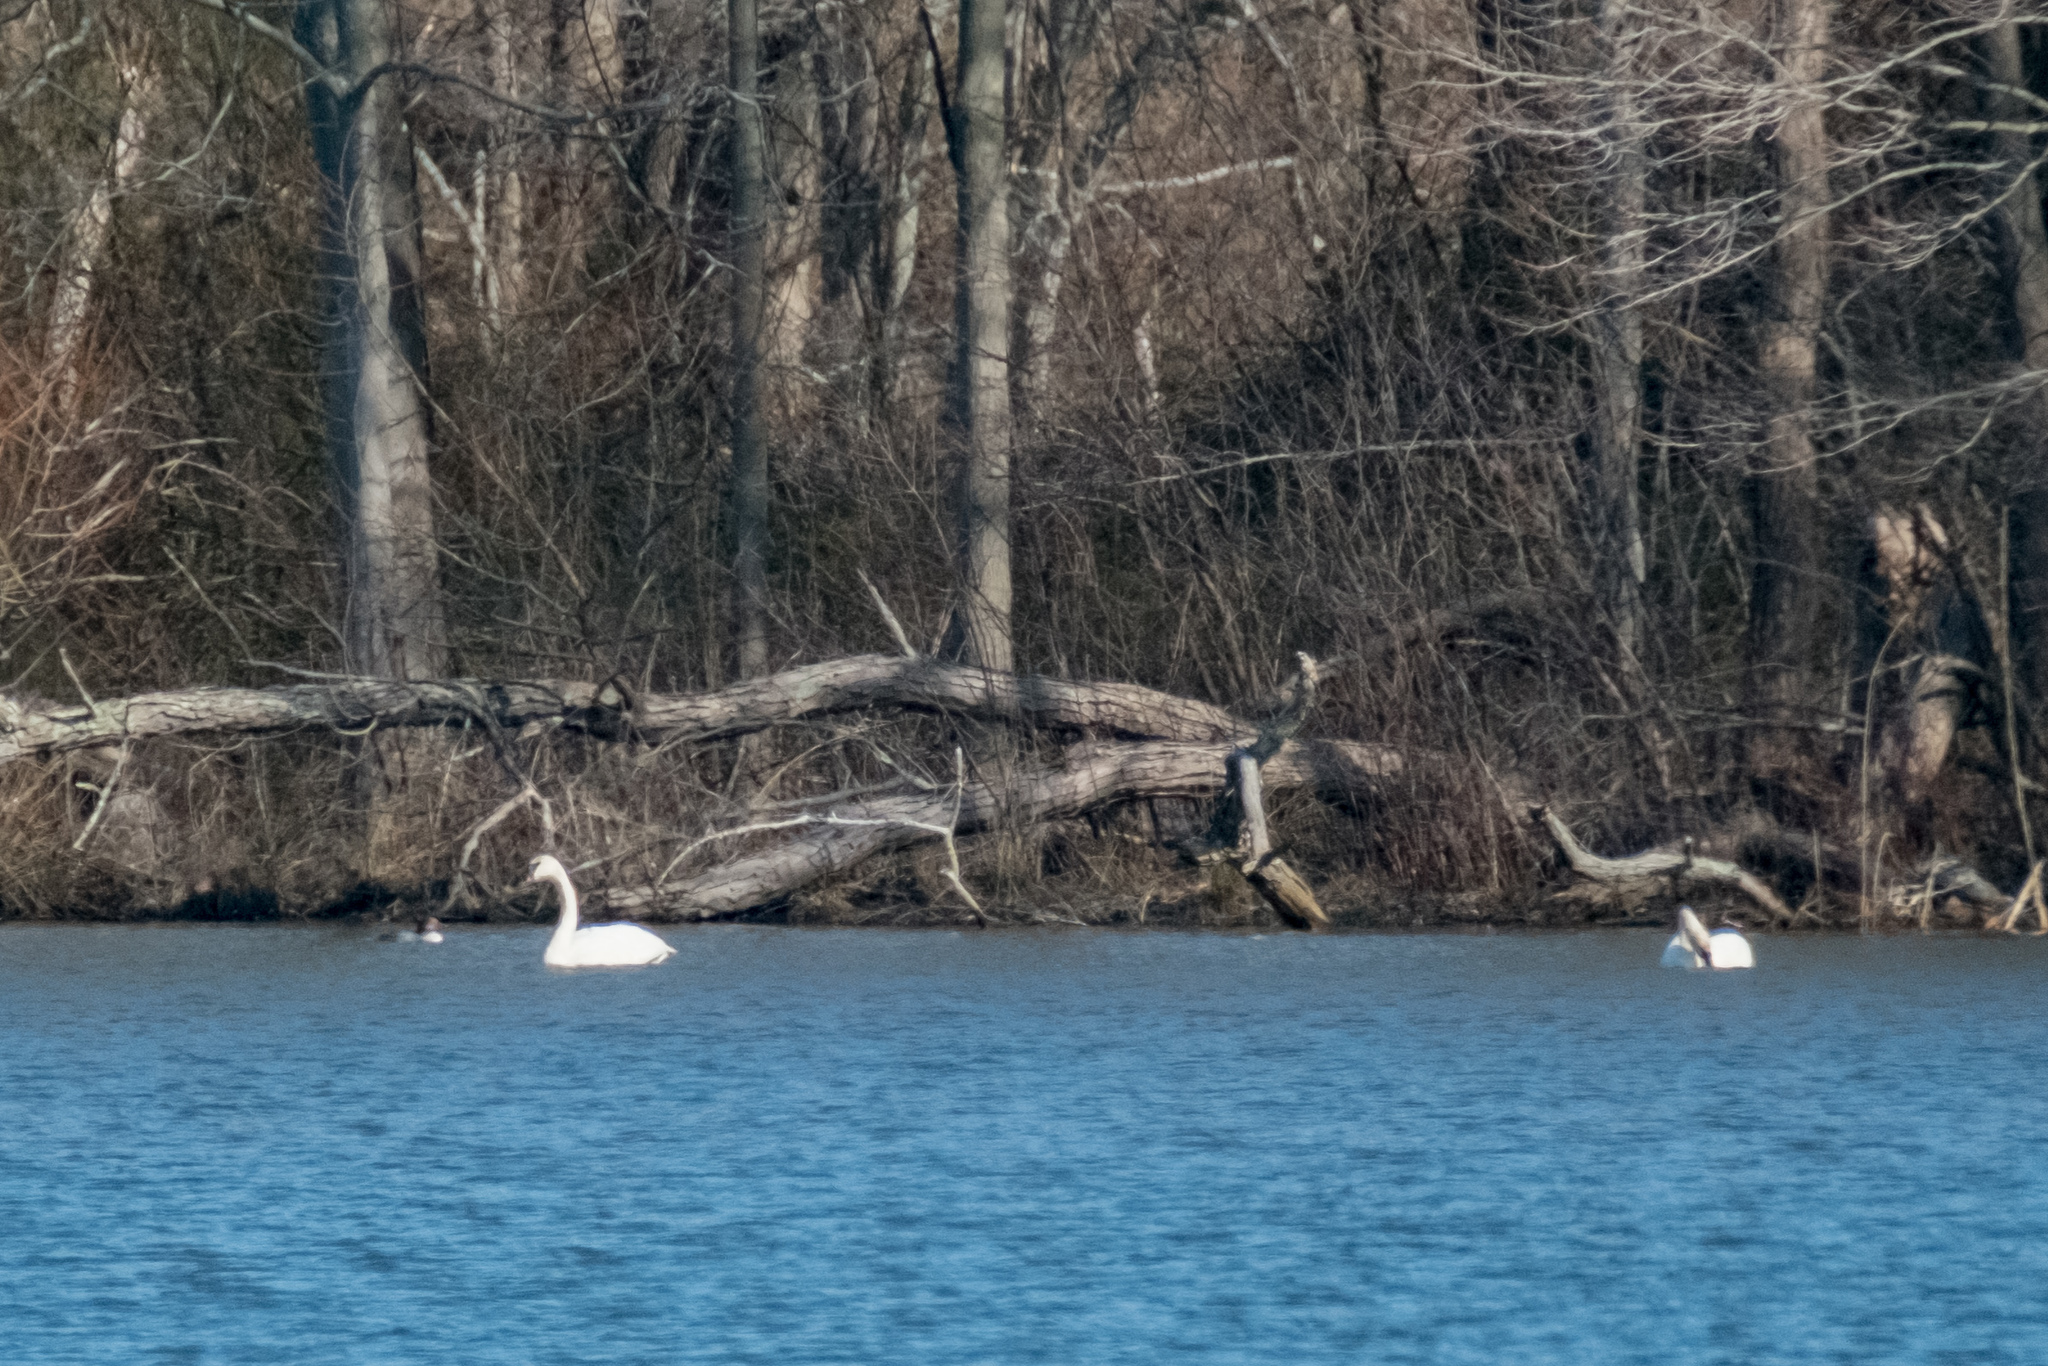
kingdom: Animalia
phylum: Chordata
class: Aves
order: Anseriformes
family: Anatidae
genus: Cygnus
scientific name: Cygnus buccinator
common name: Trumpeter swan
